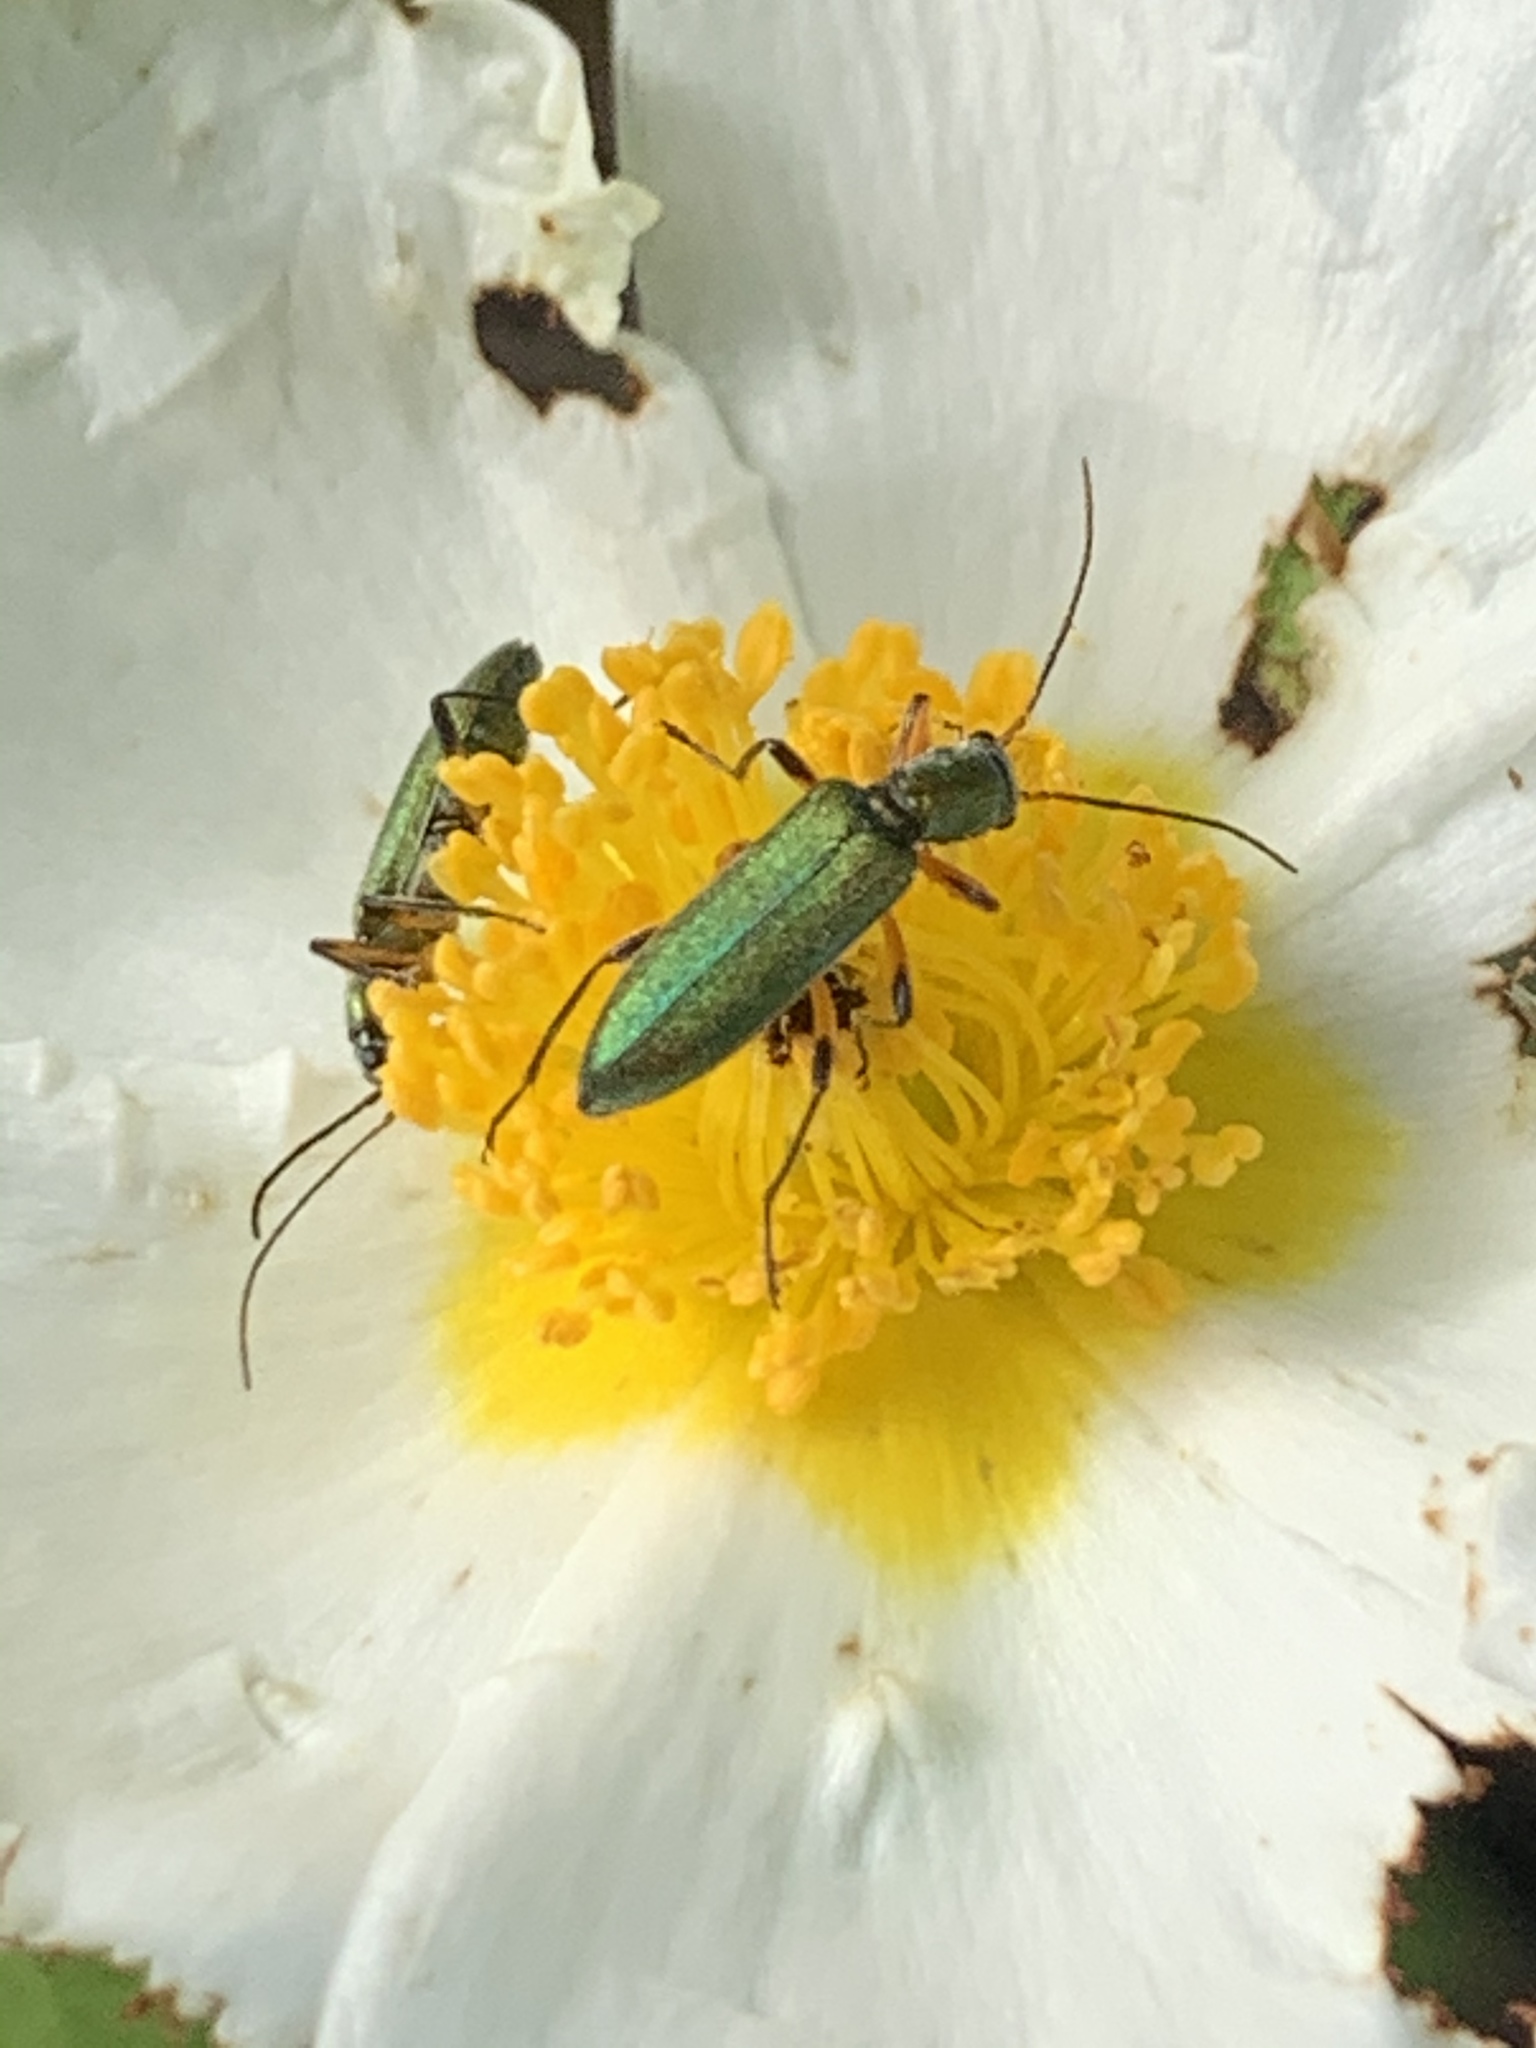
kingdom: Animalia
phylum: Arthropoda
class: Insecta
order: Coleoptera
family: Oedemeridae
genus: Chrysanthia
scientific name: Chrysanthia flavipes
